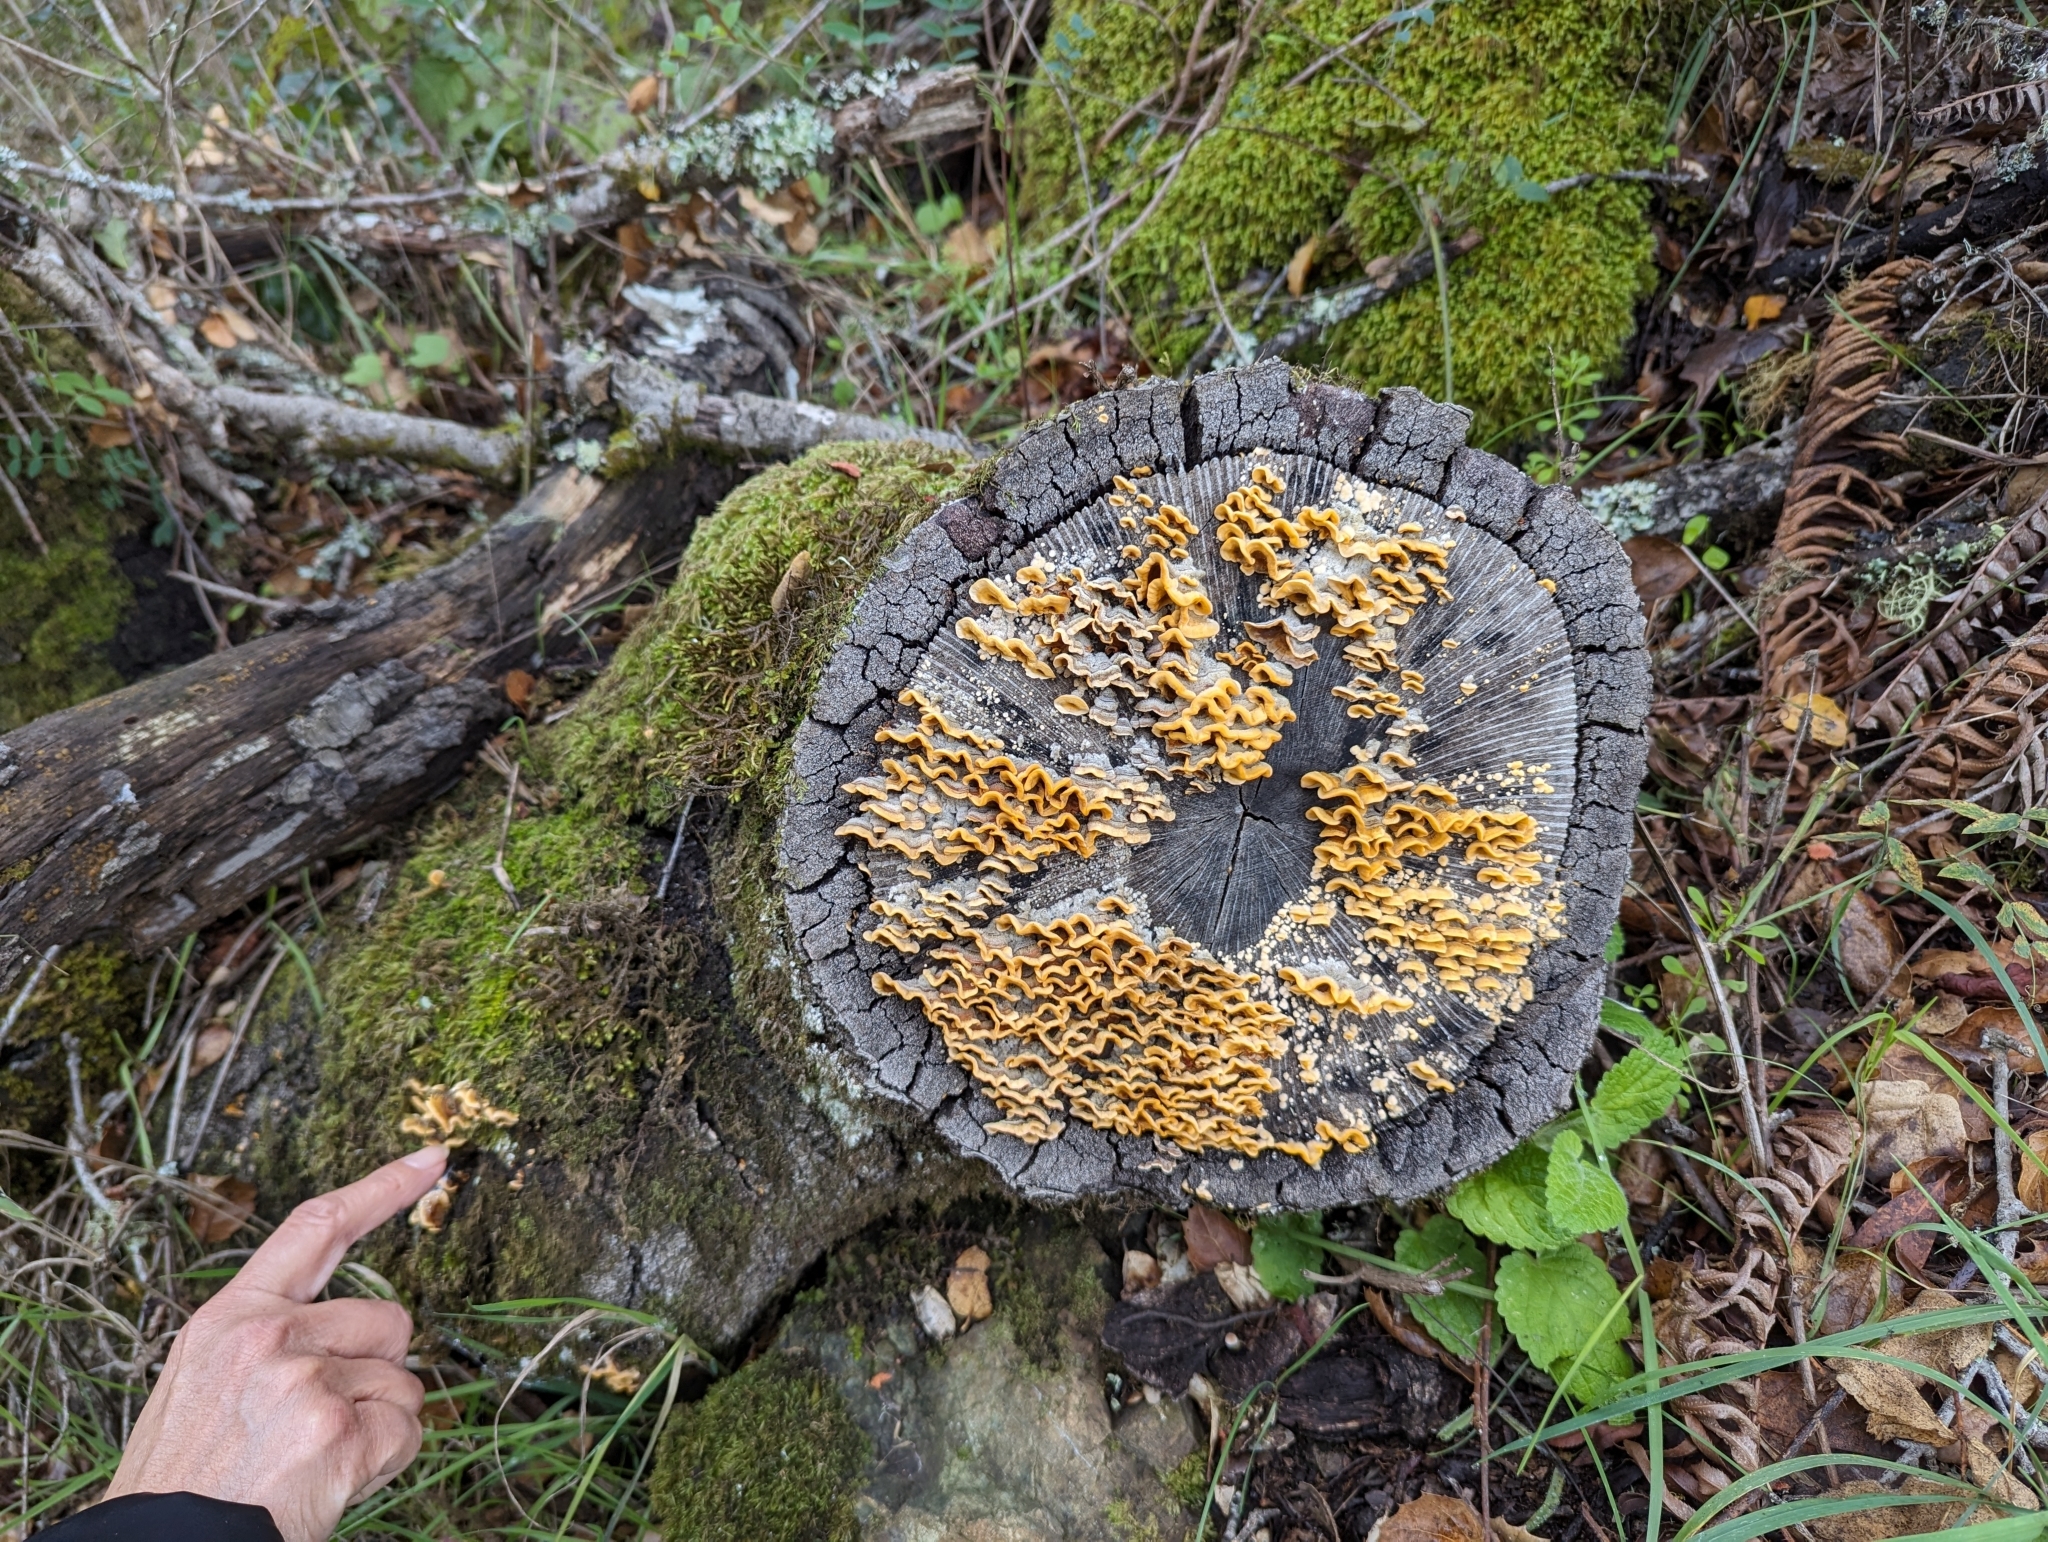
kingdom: Fungi
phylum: Basidiomycota
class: Agaricomycetes
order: Russulales
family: Stereaceae
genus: Stereum
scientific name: Stereum hirsutum
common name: Hairy curtain crust
